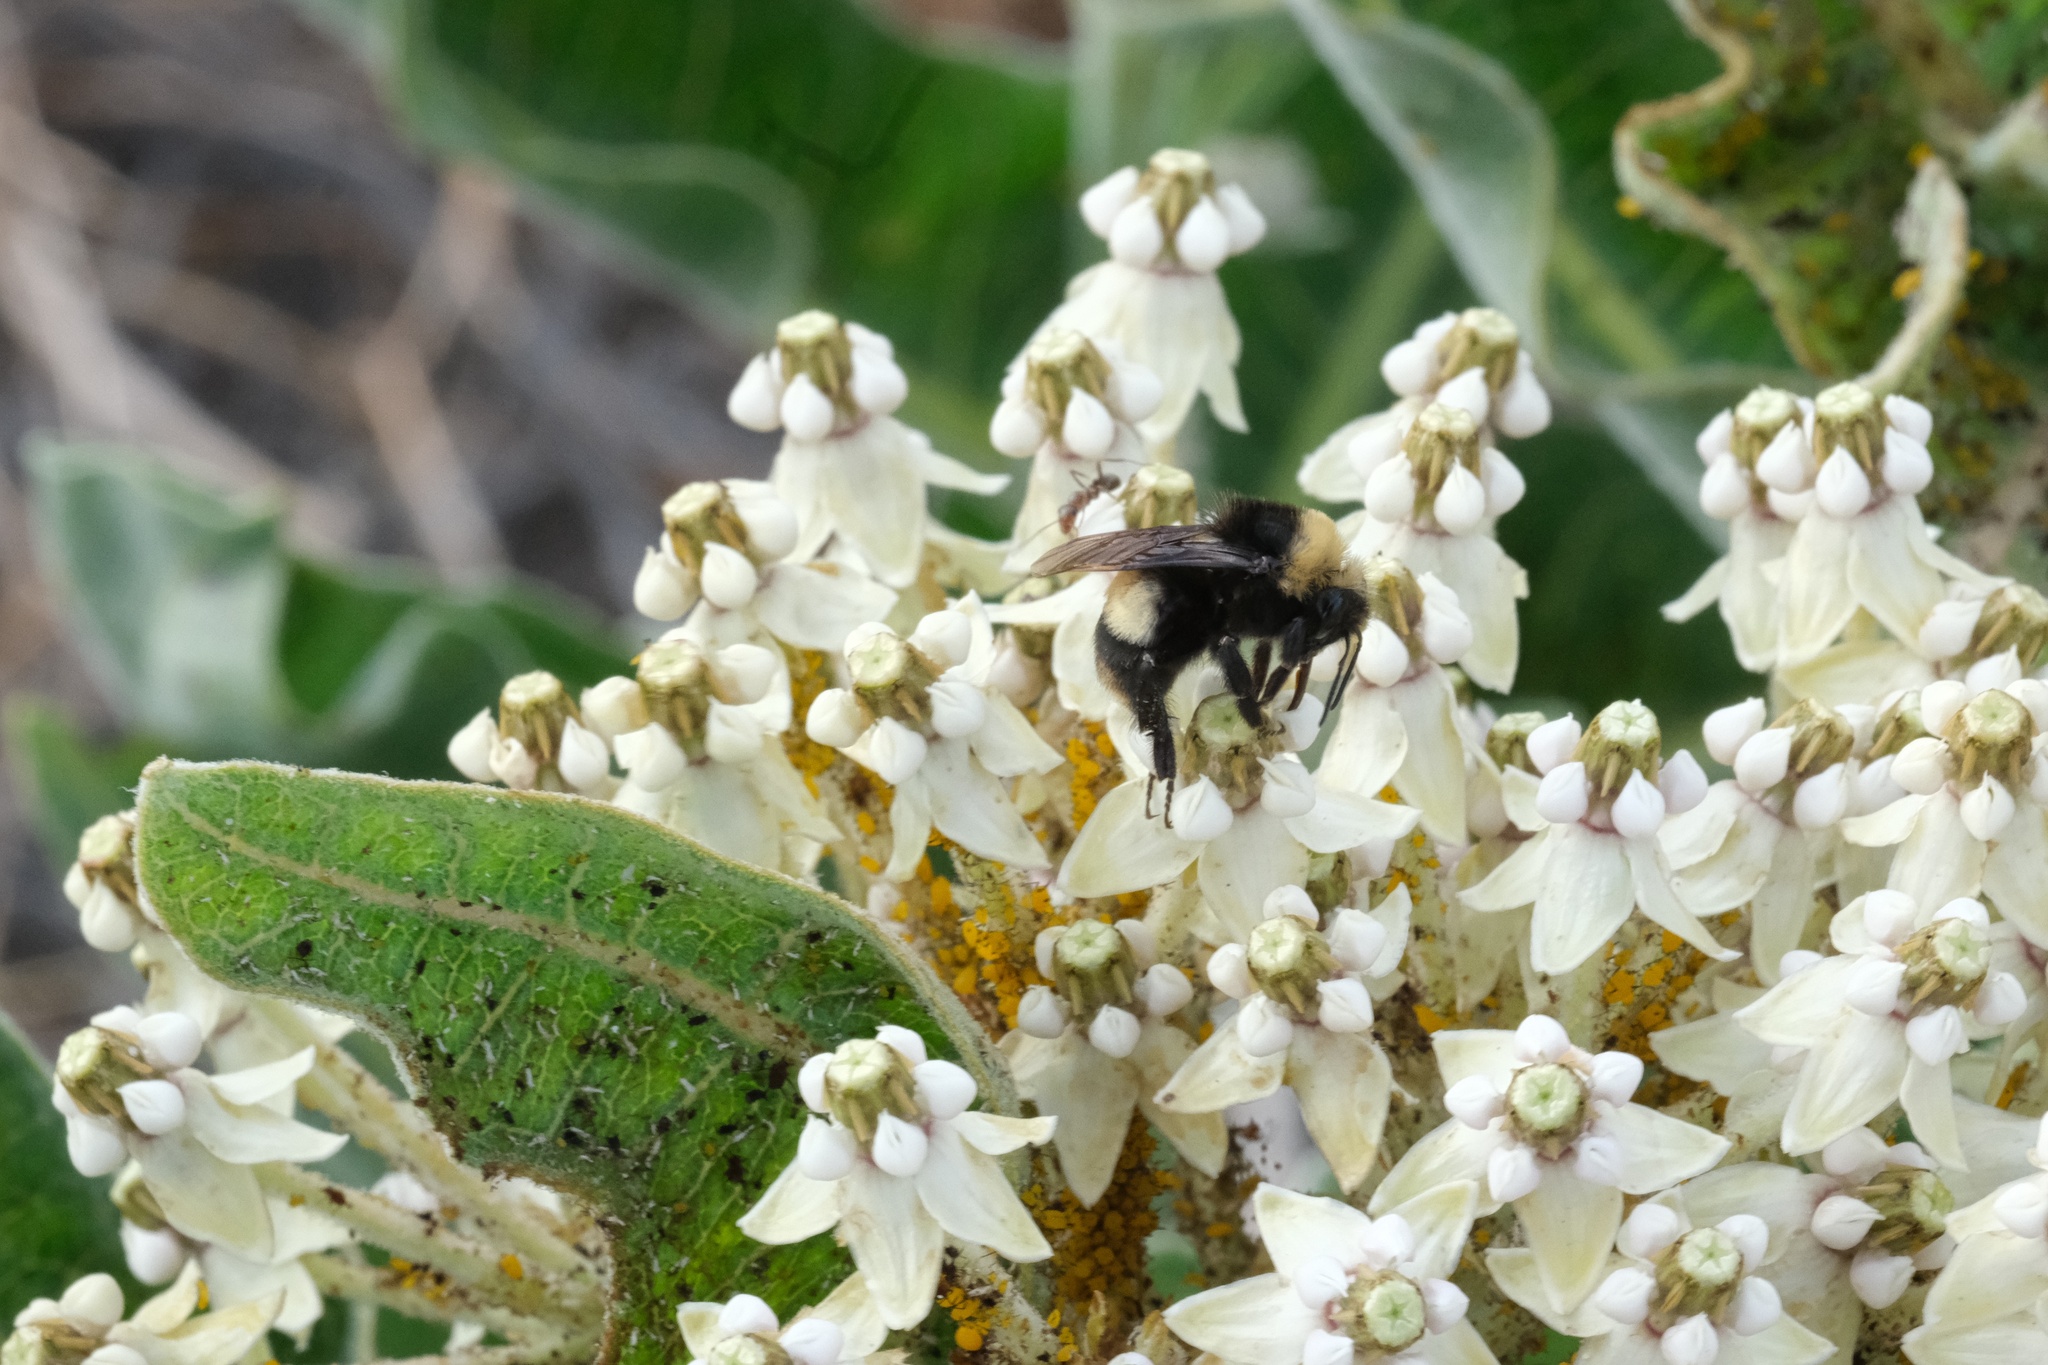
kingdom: Animalia
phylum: Arthropoda
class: Insecta
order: Hymenoptera
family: Apidae
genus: Bombus
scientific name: Bombus crotchii
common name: Crotch bumble bee
